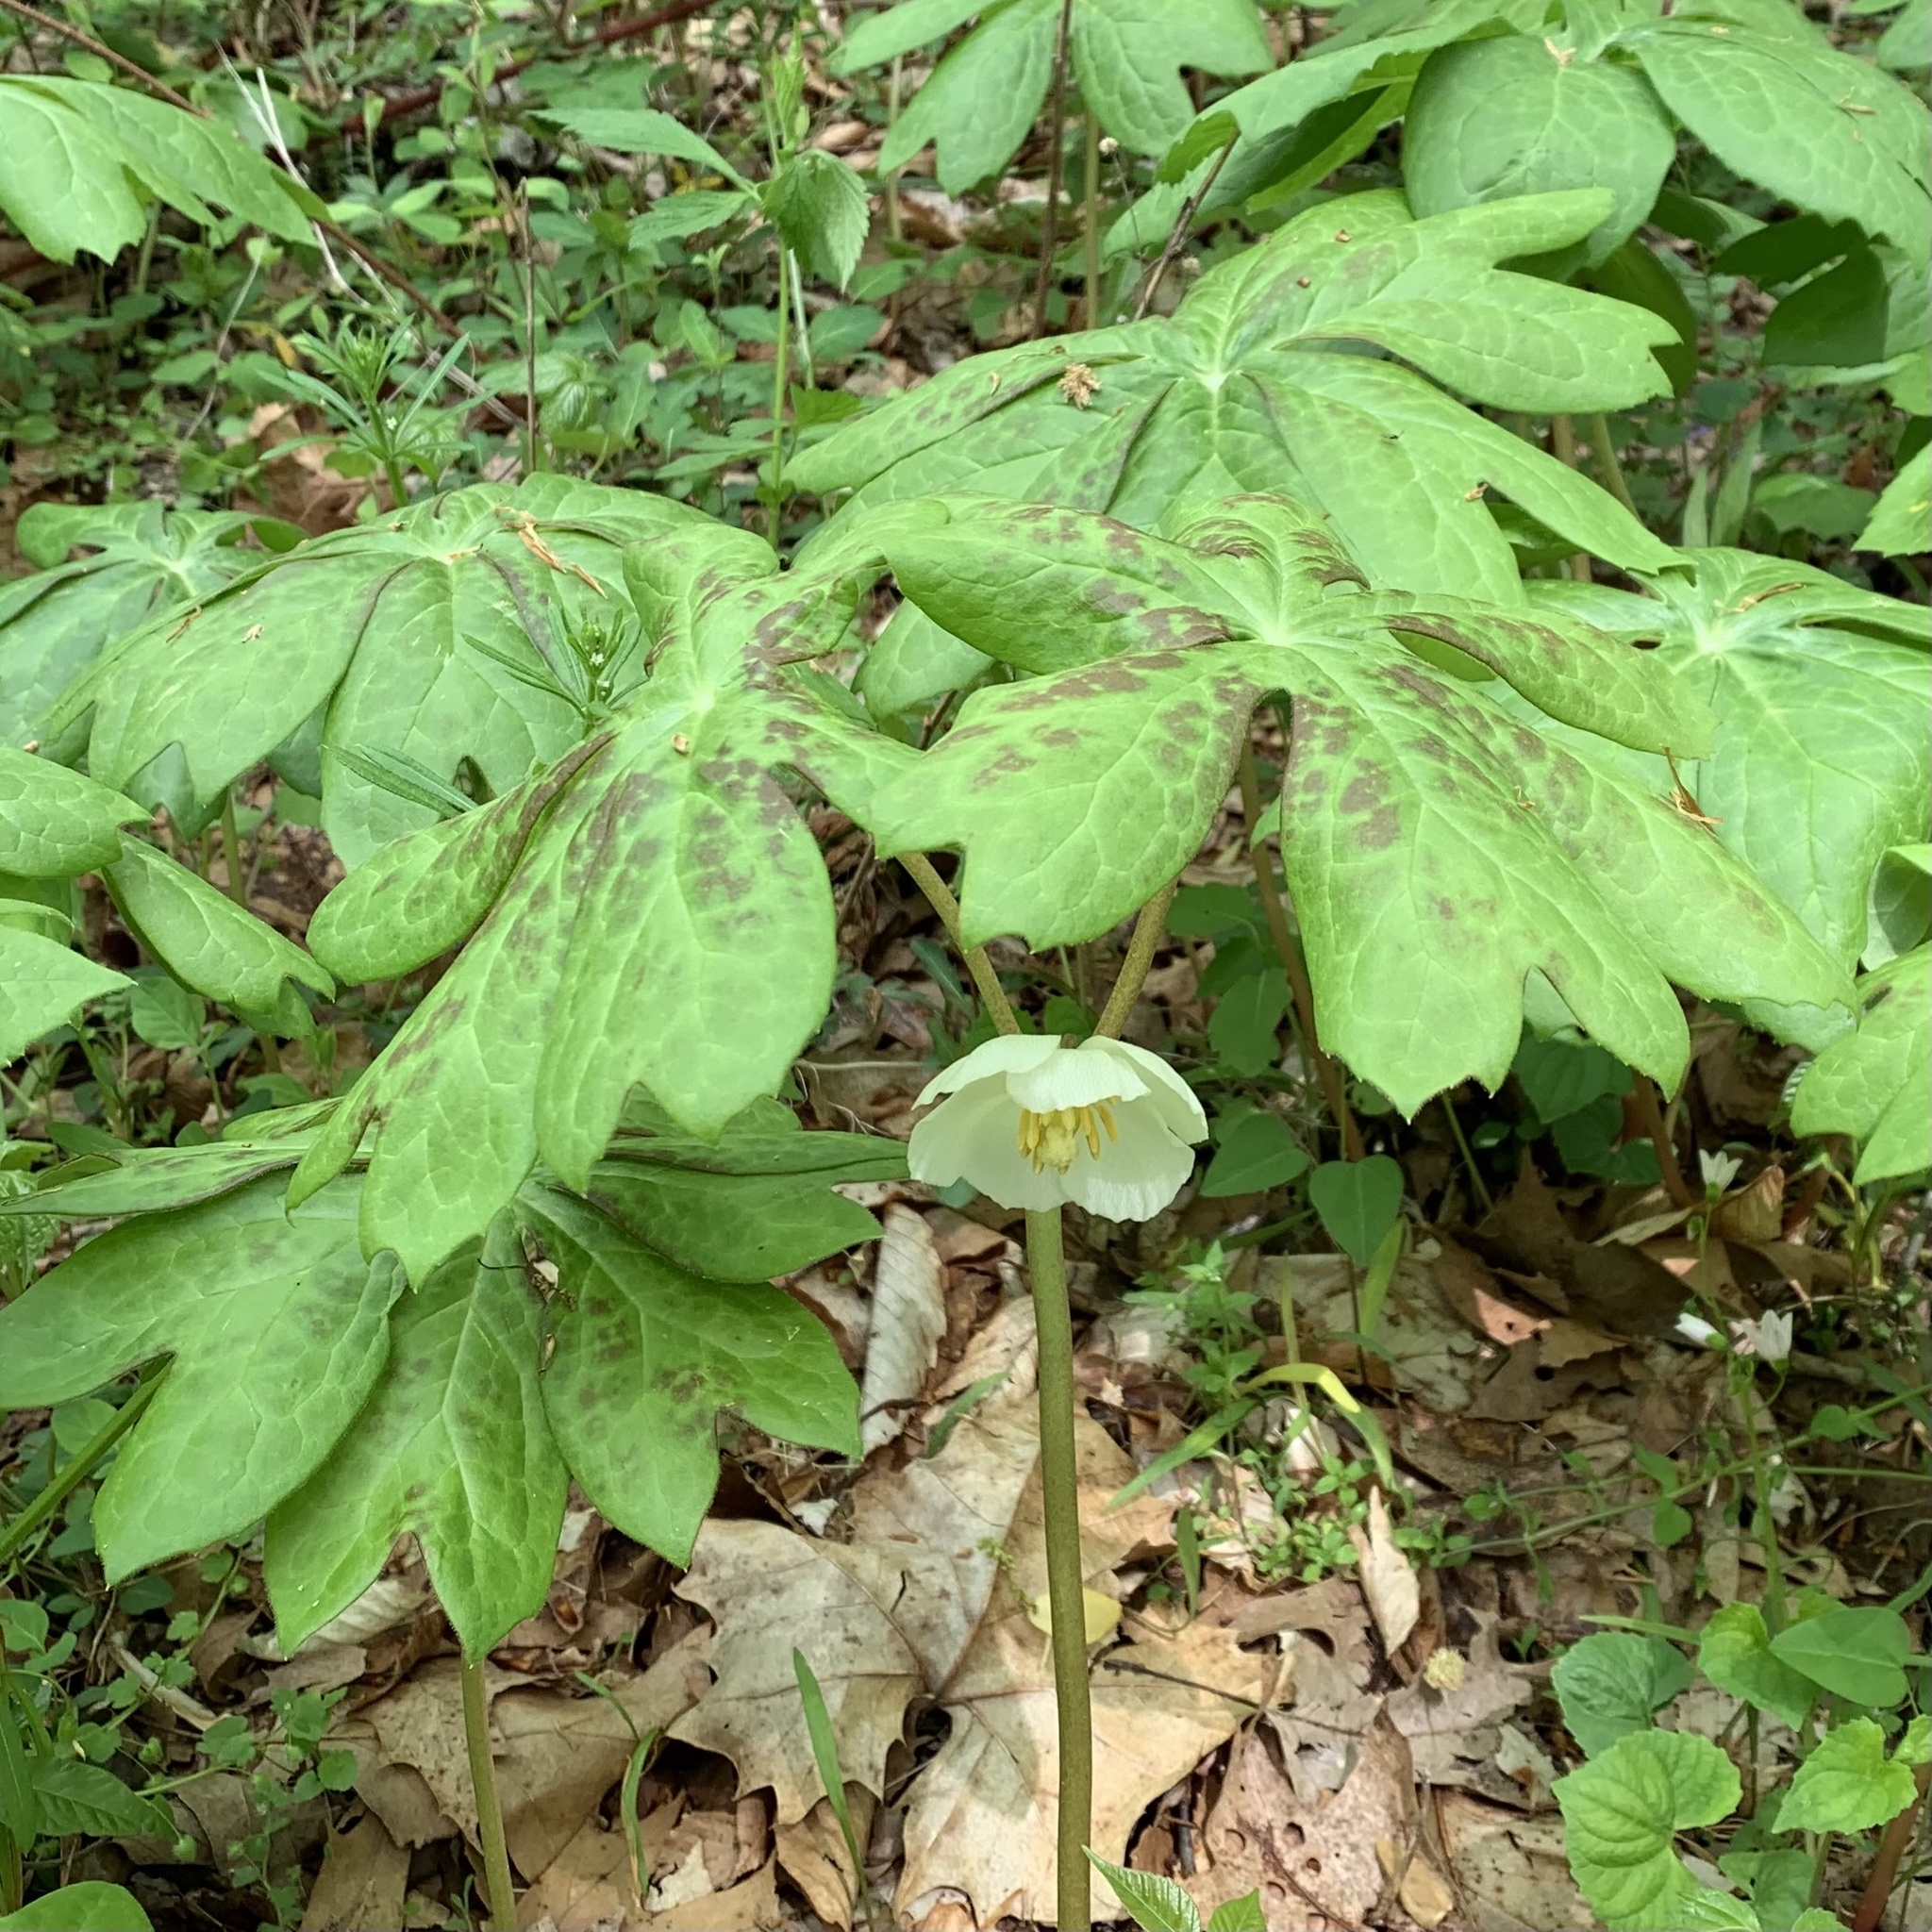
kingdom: Plantae
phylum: Tracheophyta
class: Magnoliopsida
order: Ranunculales
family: Berberidaceae
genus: Podophyllum
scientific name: Podophyllum peltatum
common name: Wild mandrake
